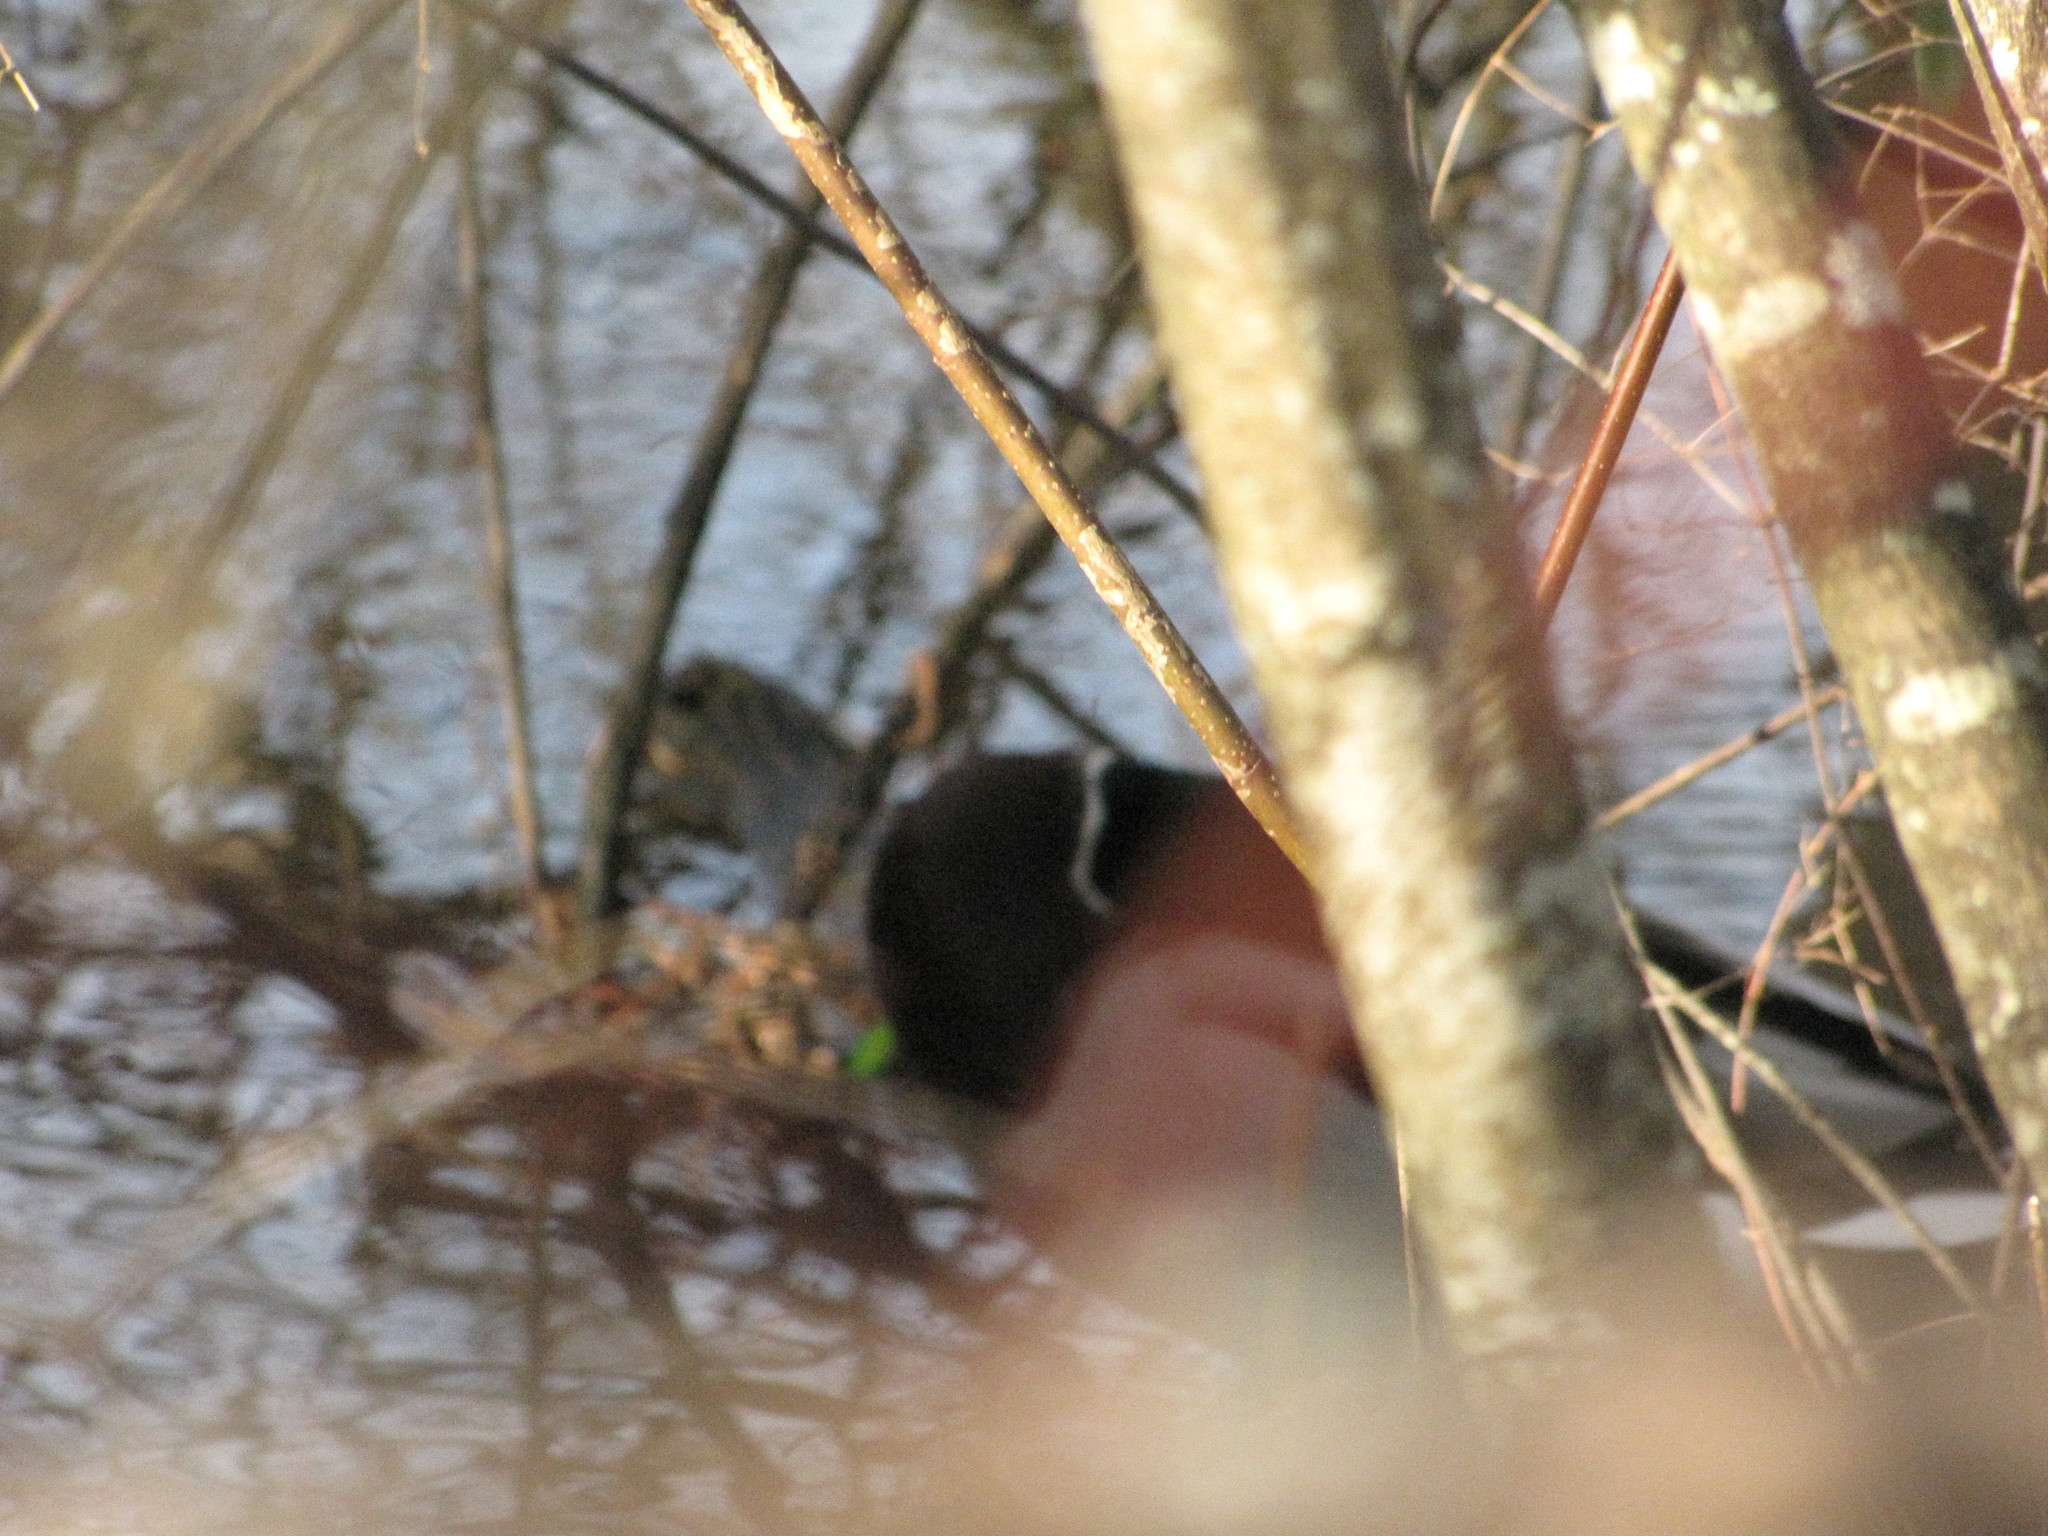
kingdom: Animalia
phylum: Chordata
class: Aves
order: Anseriformes
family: Anatidae
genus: Anas
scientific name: Anas platyrhynchos
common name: Mallard
